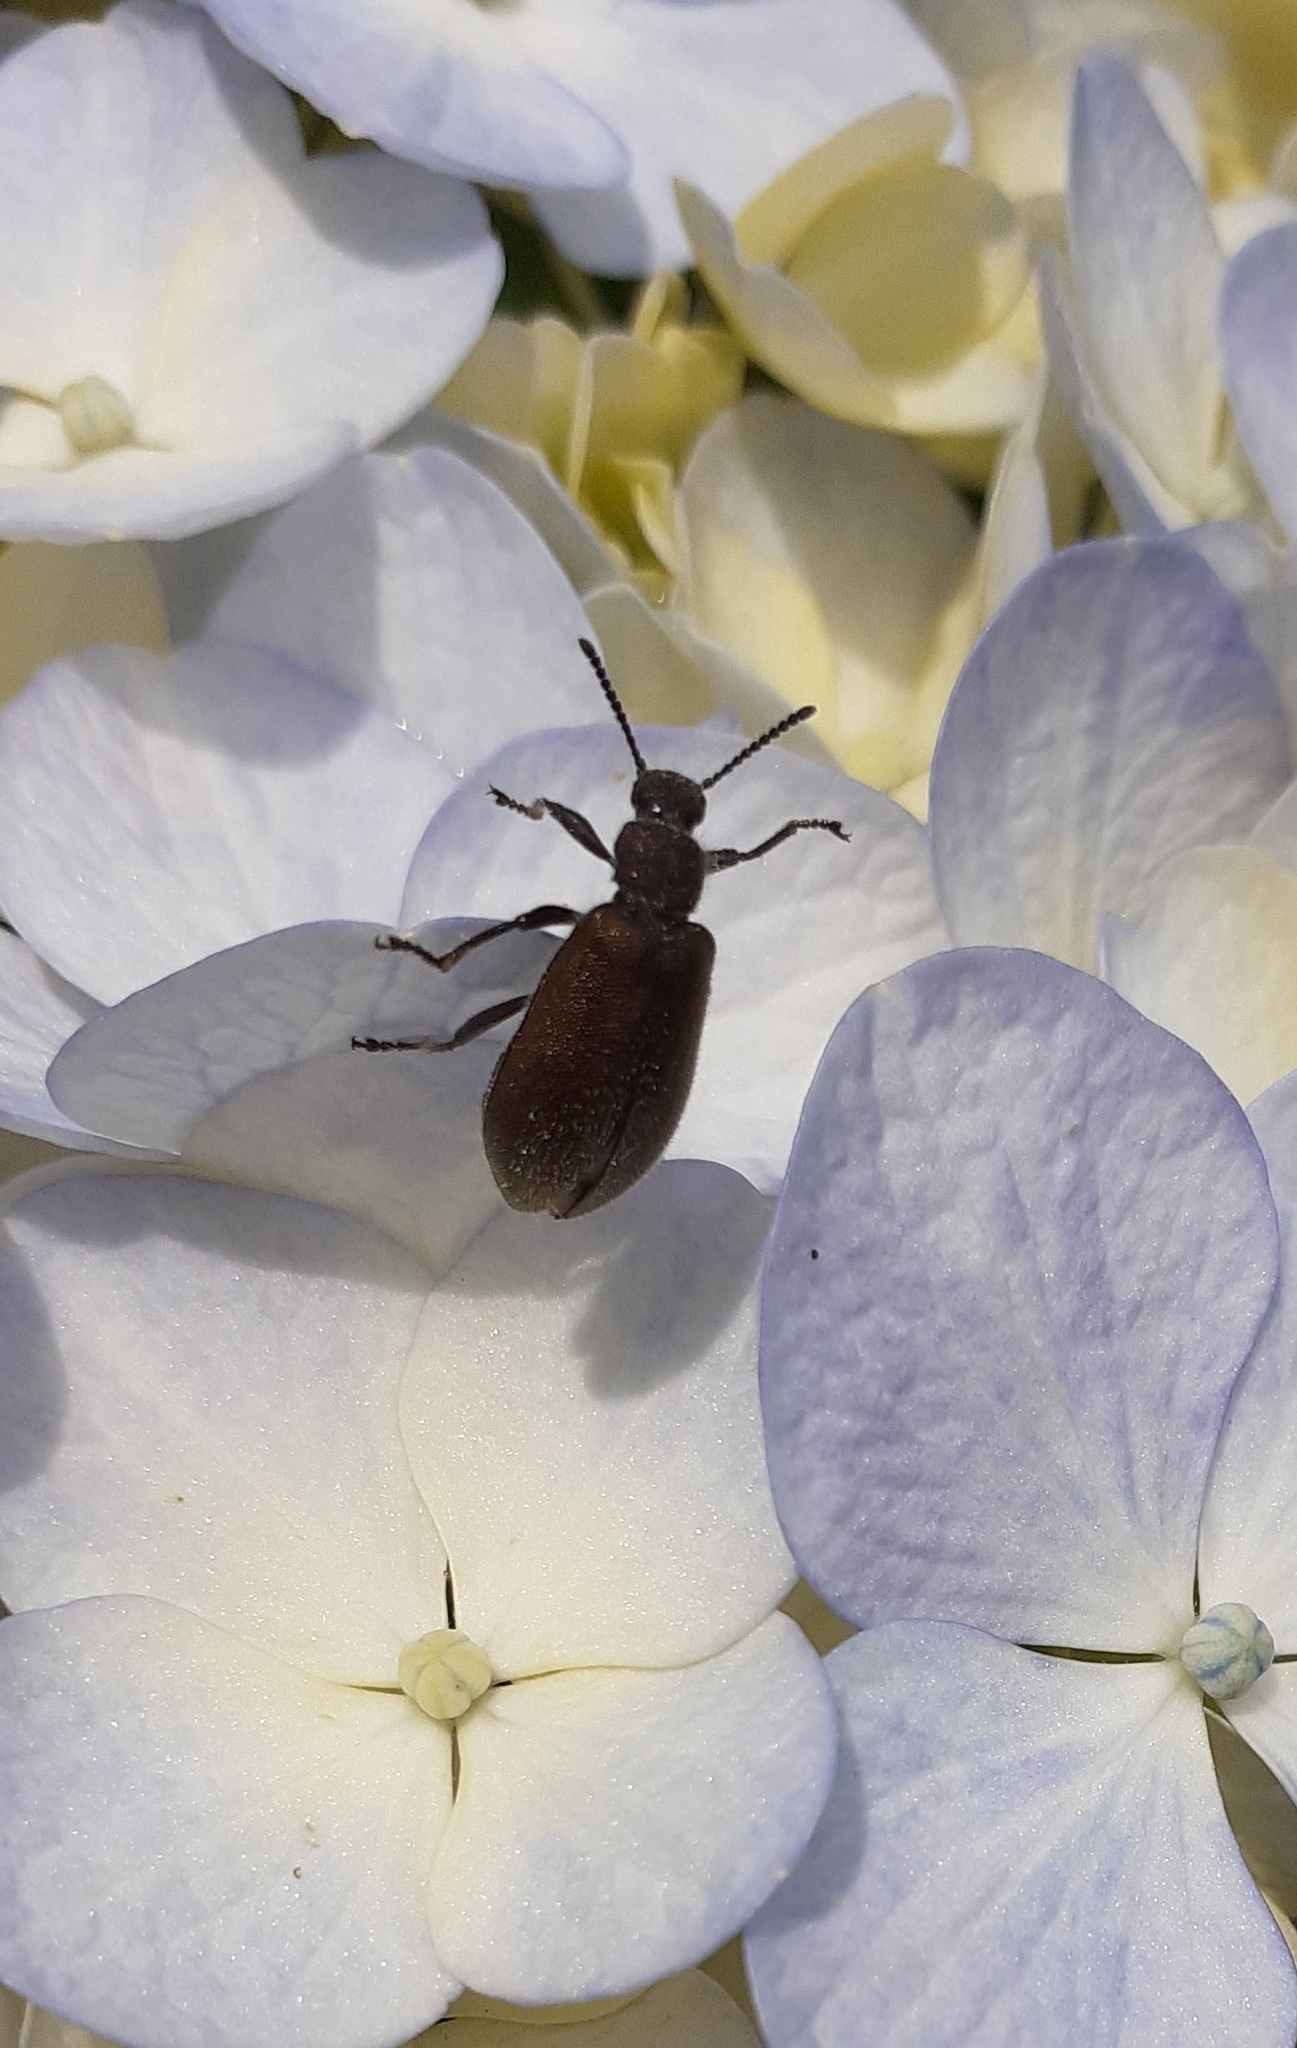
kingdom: Animalia
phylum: Arthropoda
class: Insecta
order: Coleoptera
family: Tenebrionidae
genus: Lagria
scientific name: Lagria villosa
